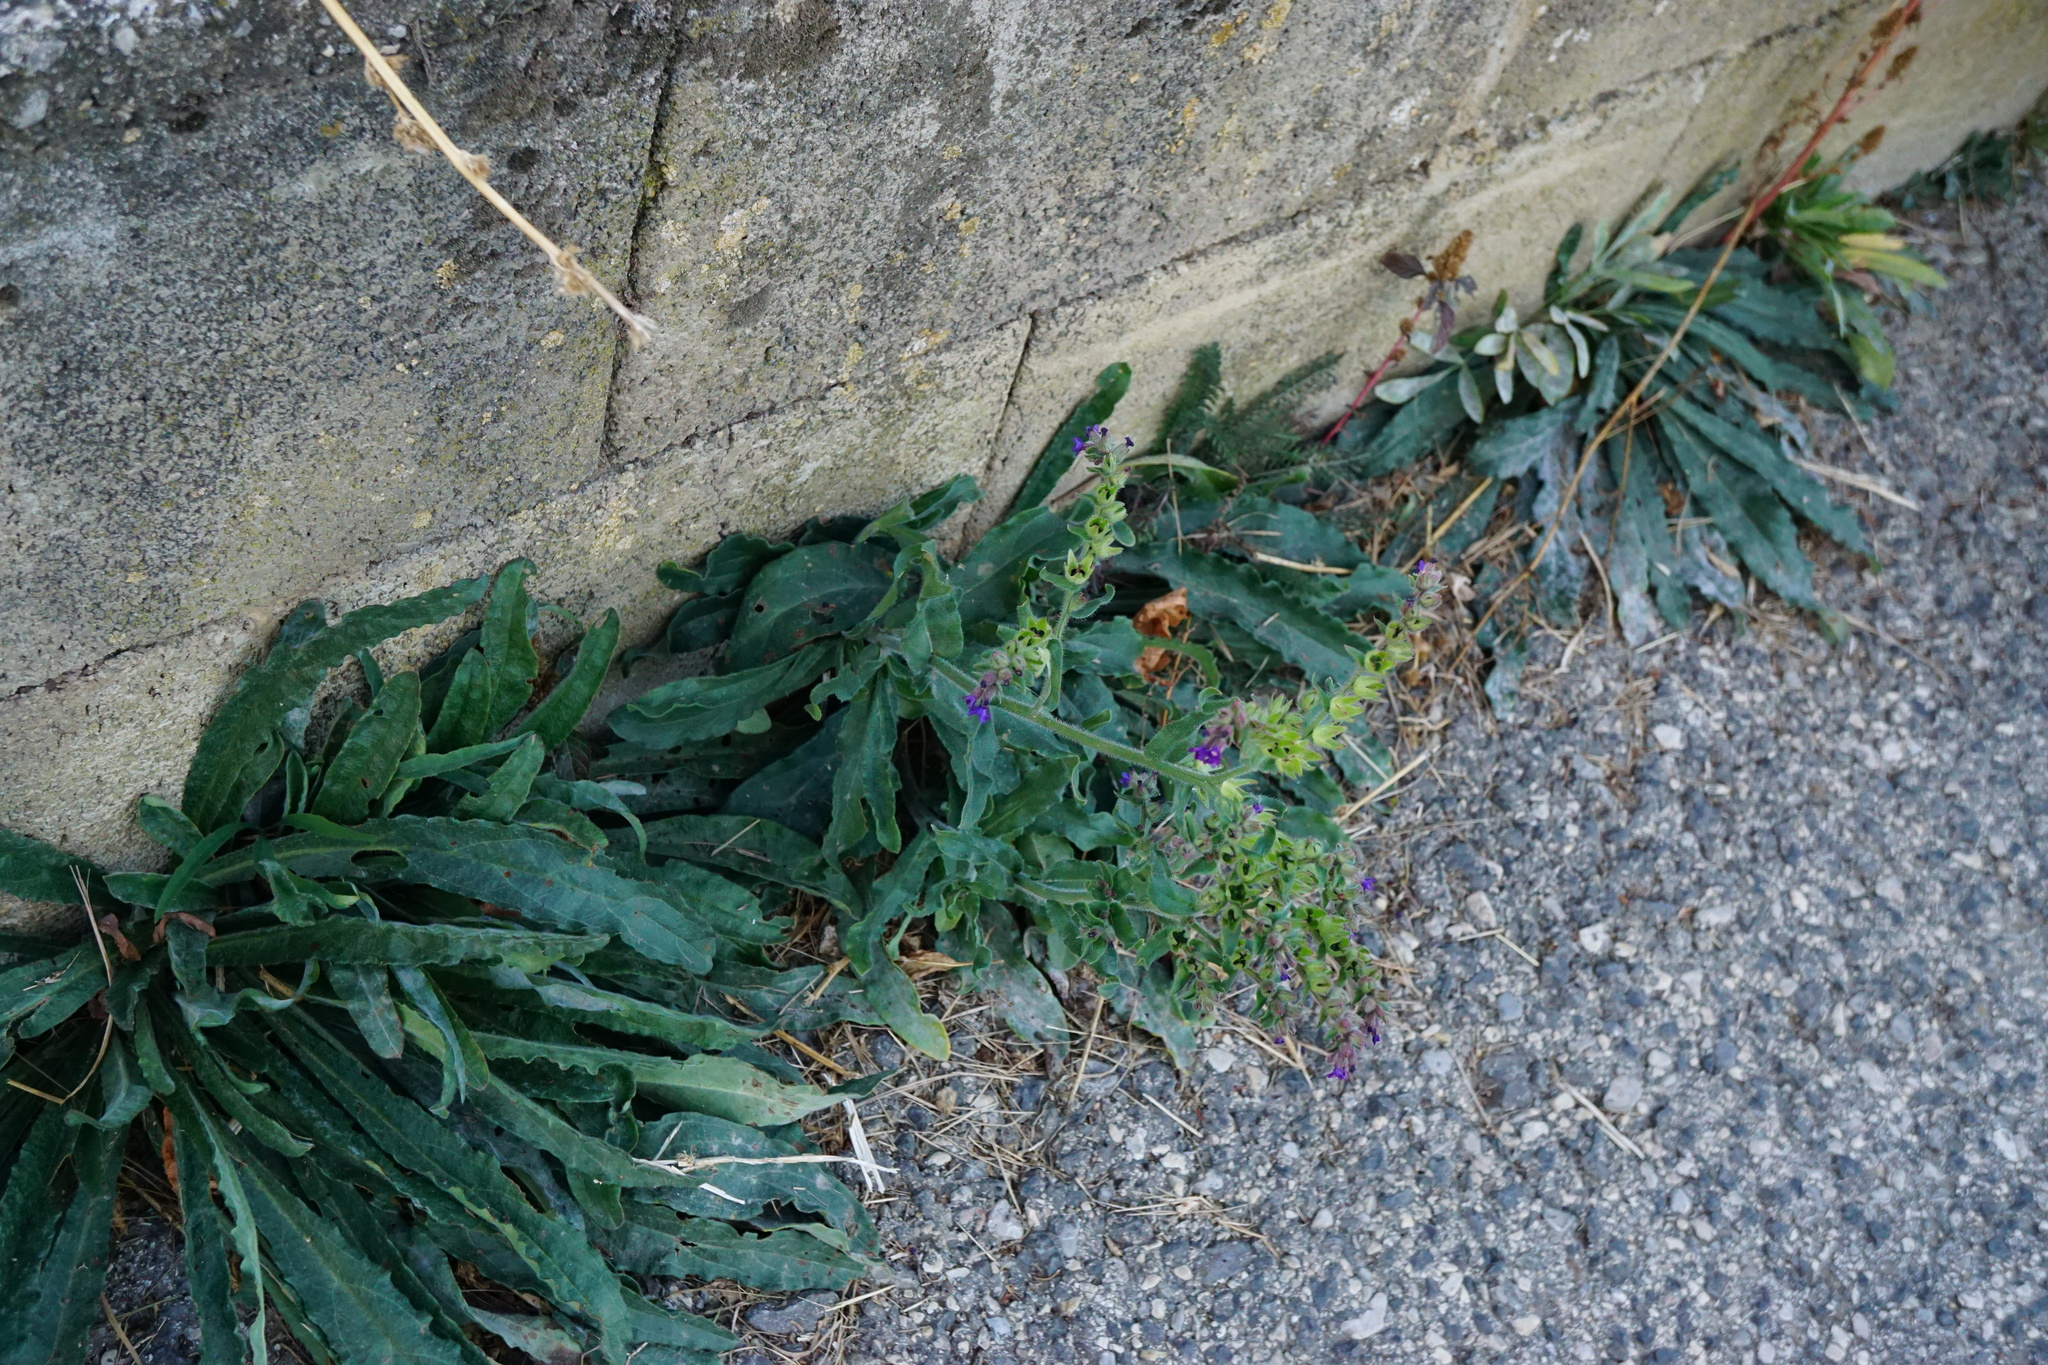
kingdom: Plantae
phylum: Tracheophyta
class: Magnoliopsida
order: Boraginales
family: Boraginaceae
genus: Anchusa
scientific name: Anchusa officinalis
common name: Alkanet
